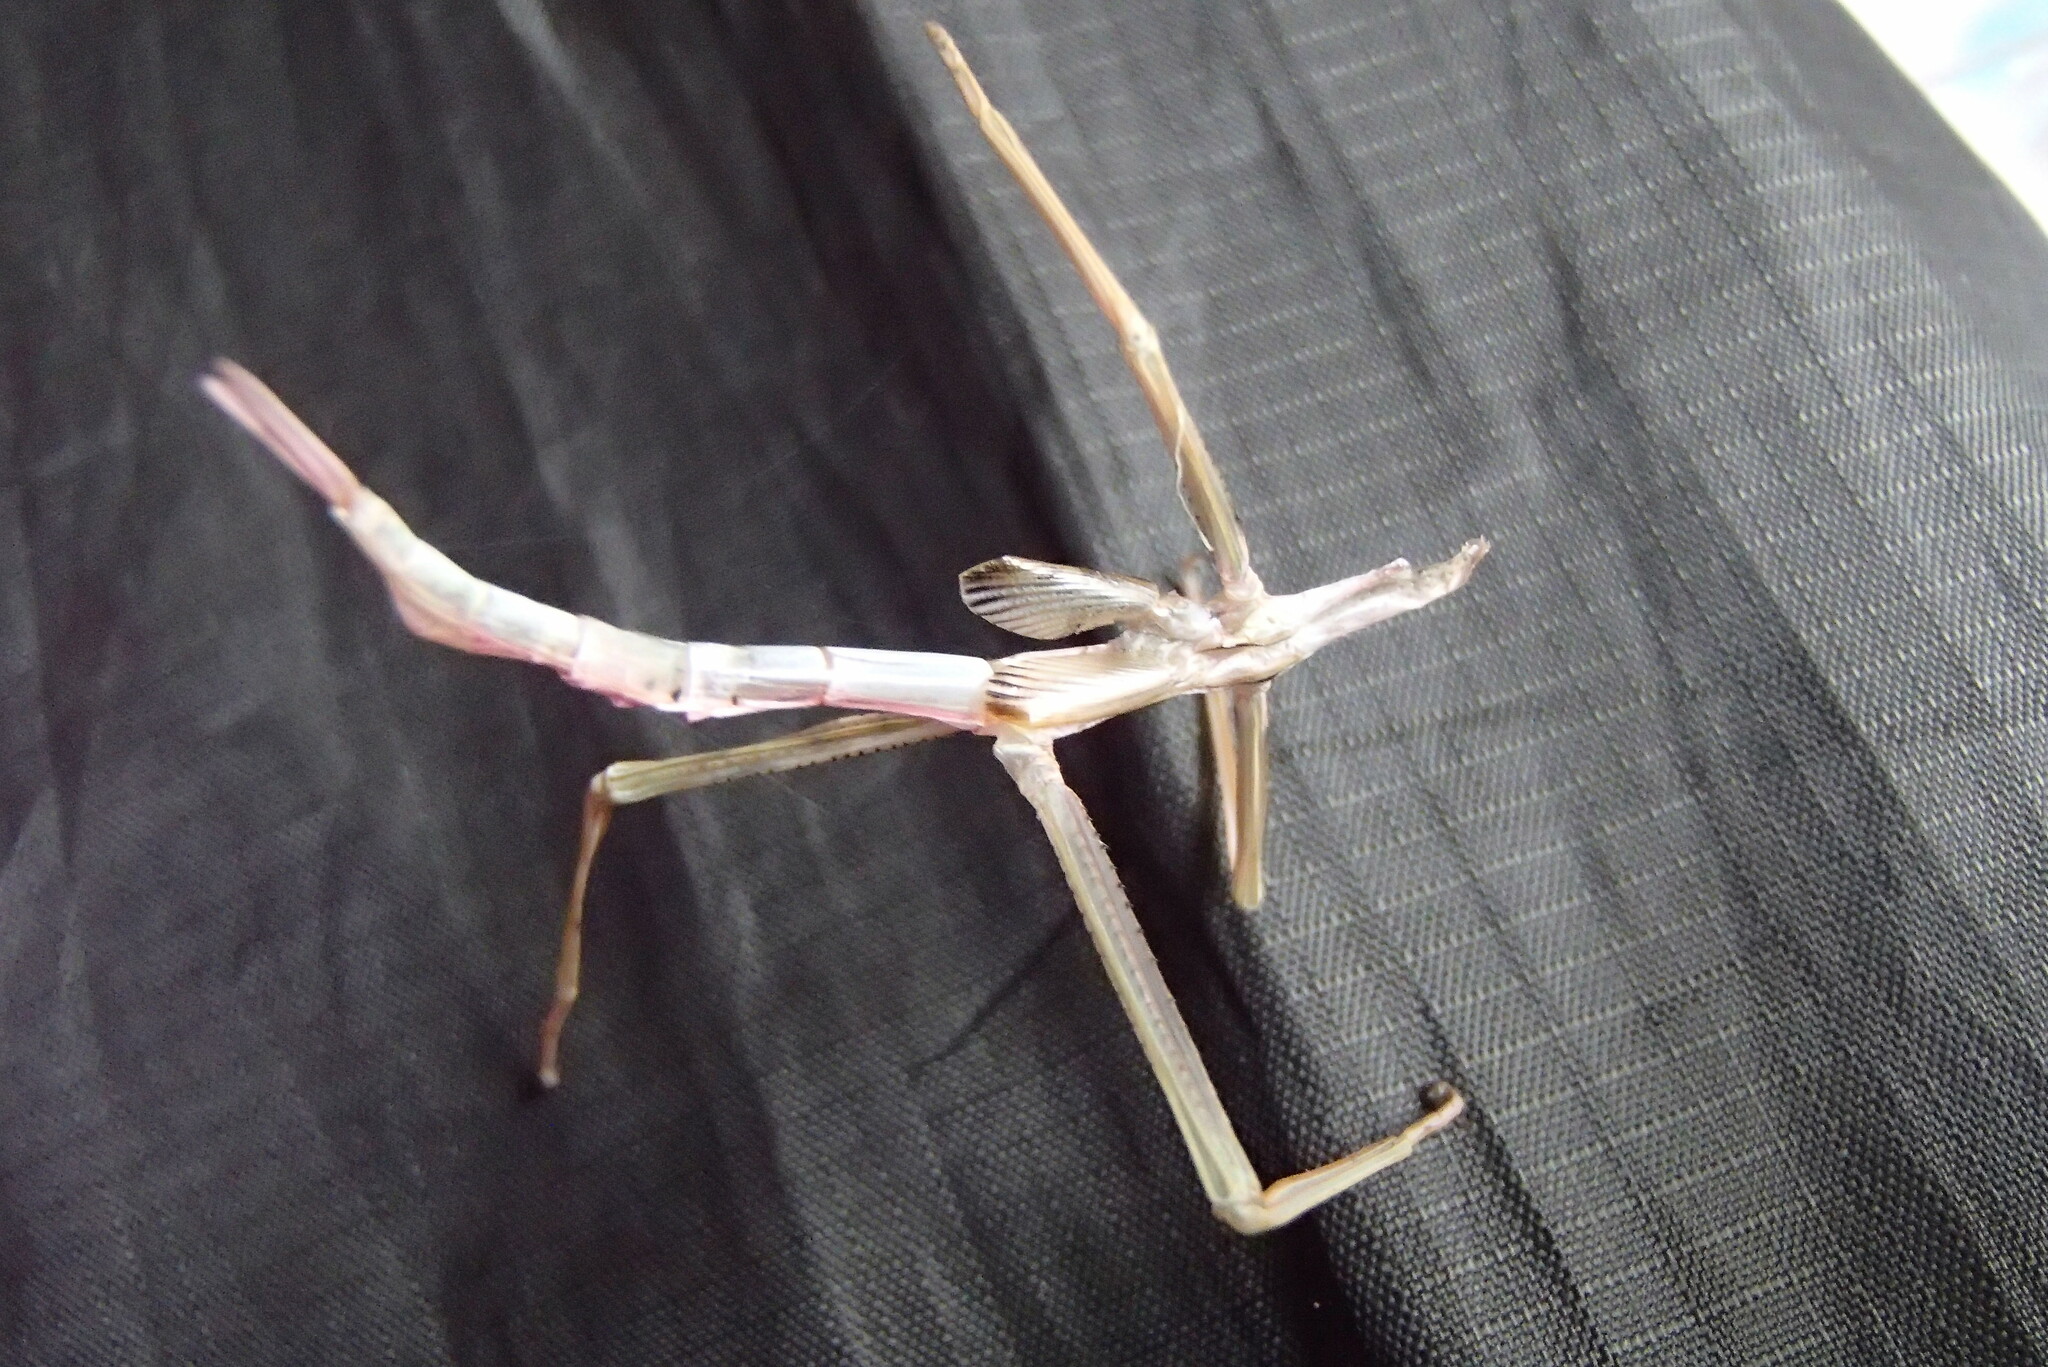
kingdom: Animalia
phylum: Arthropoda
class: Insecta
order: Phasmida
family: Phasmatidae
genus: Didymuria
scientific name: Didymuria violescens
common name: Spur-legged stick-insect
